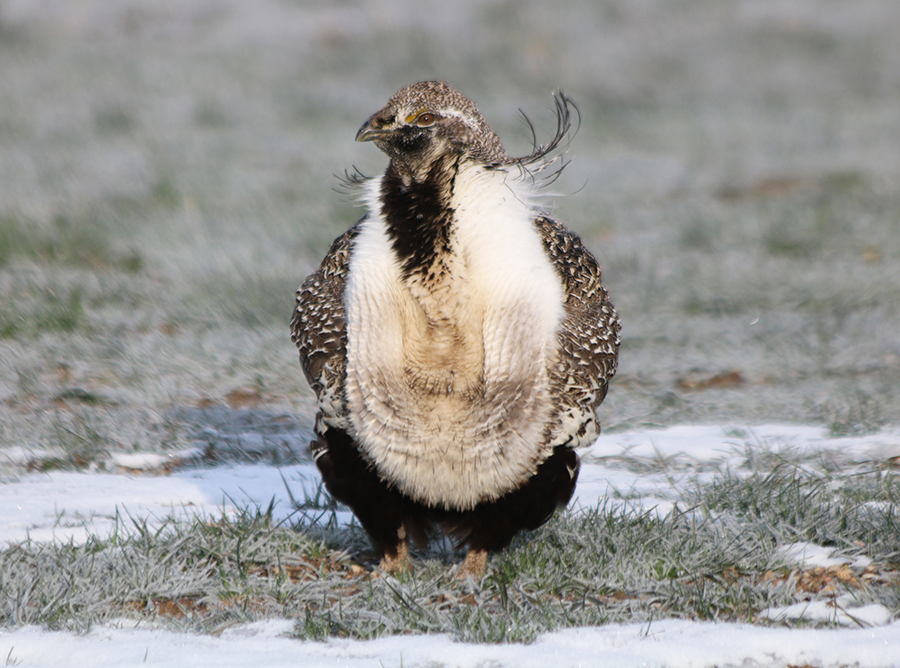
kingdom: Animalia
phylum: Chordata
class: Aves
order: Galliformes
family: Phasianidae
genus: Centrocercus
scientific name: Centrocercus urophasianus
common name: Sage grouse
